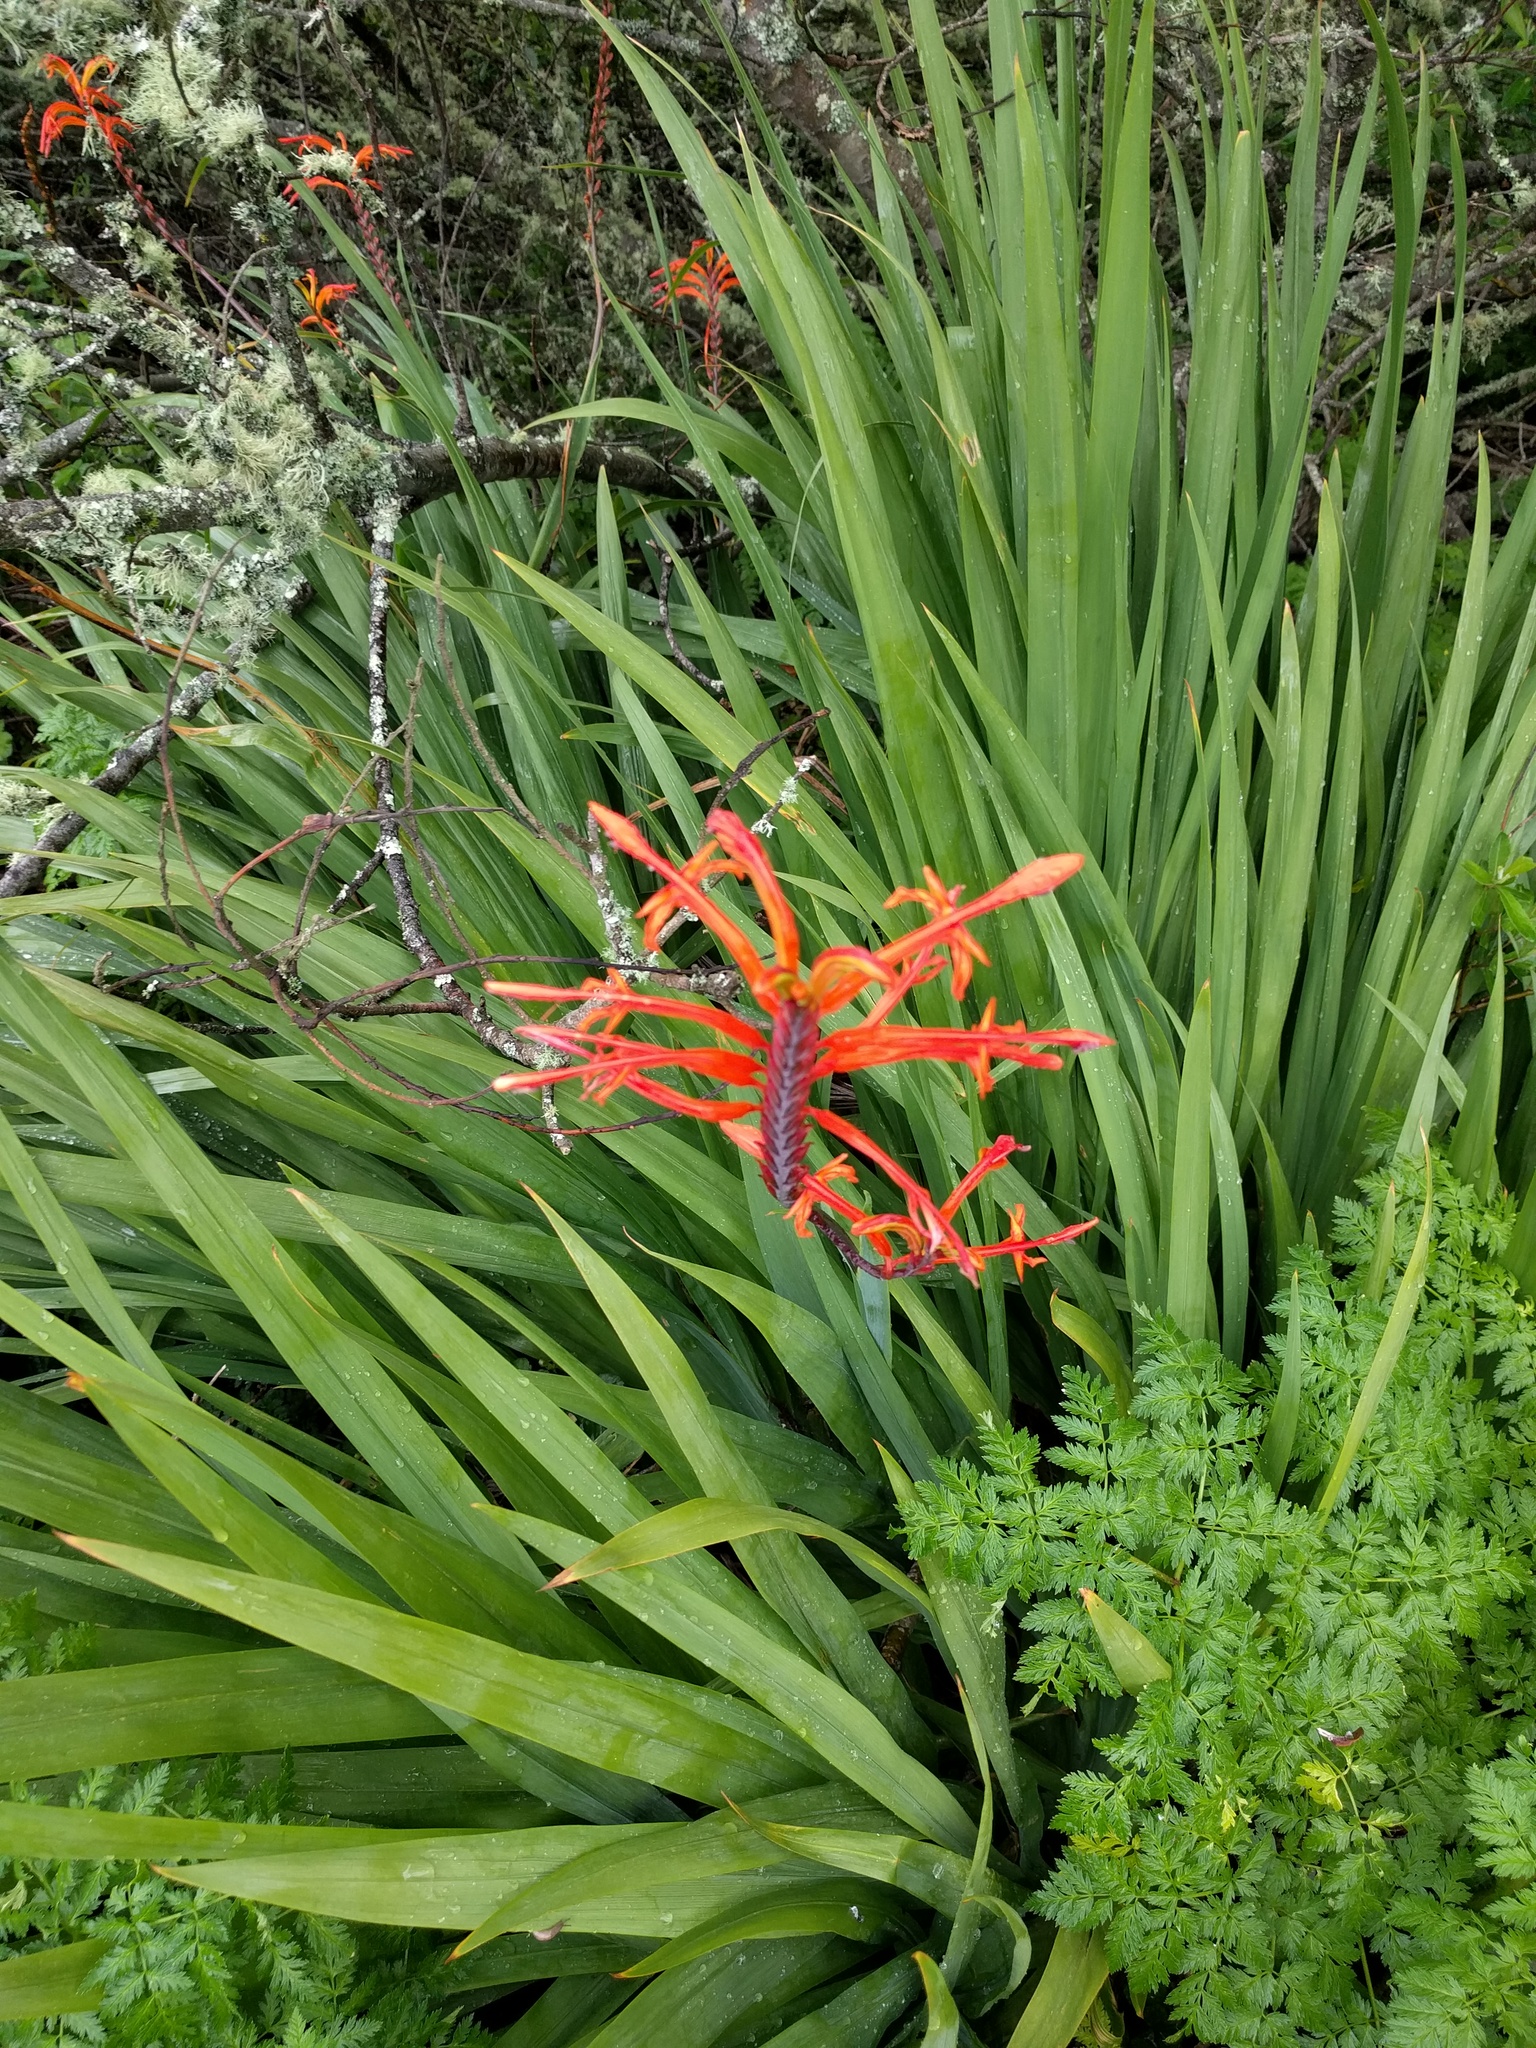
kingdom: Plantae
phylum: Tracheophyta
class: Liliopsida
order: Asparagales
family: Iridaceae
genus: Chasmanthe
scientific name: Chasmanthe floribunda
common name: African cornflag
